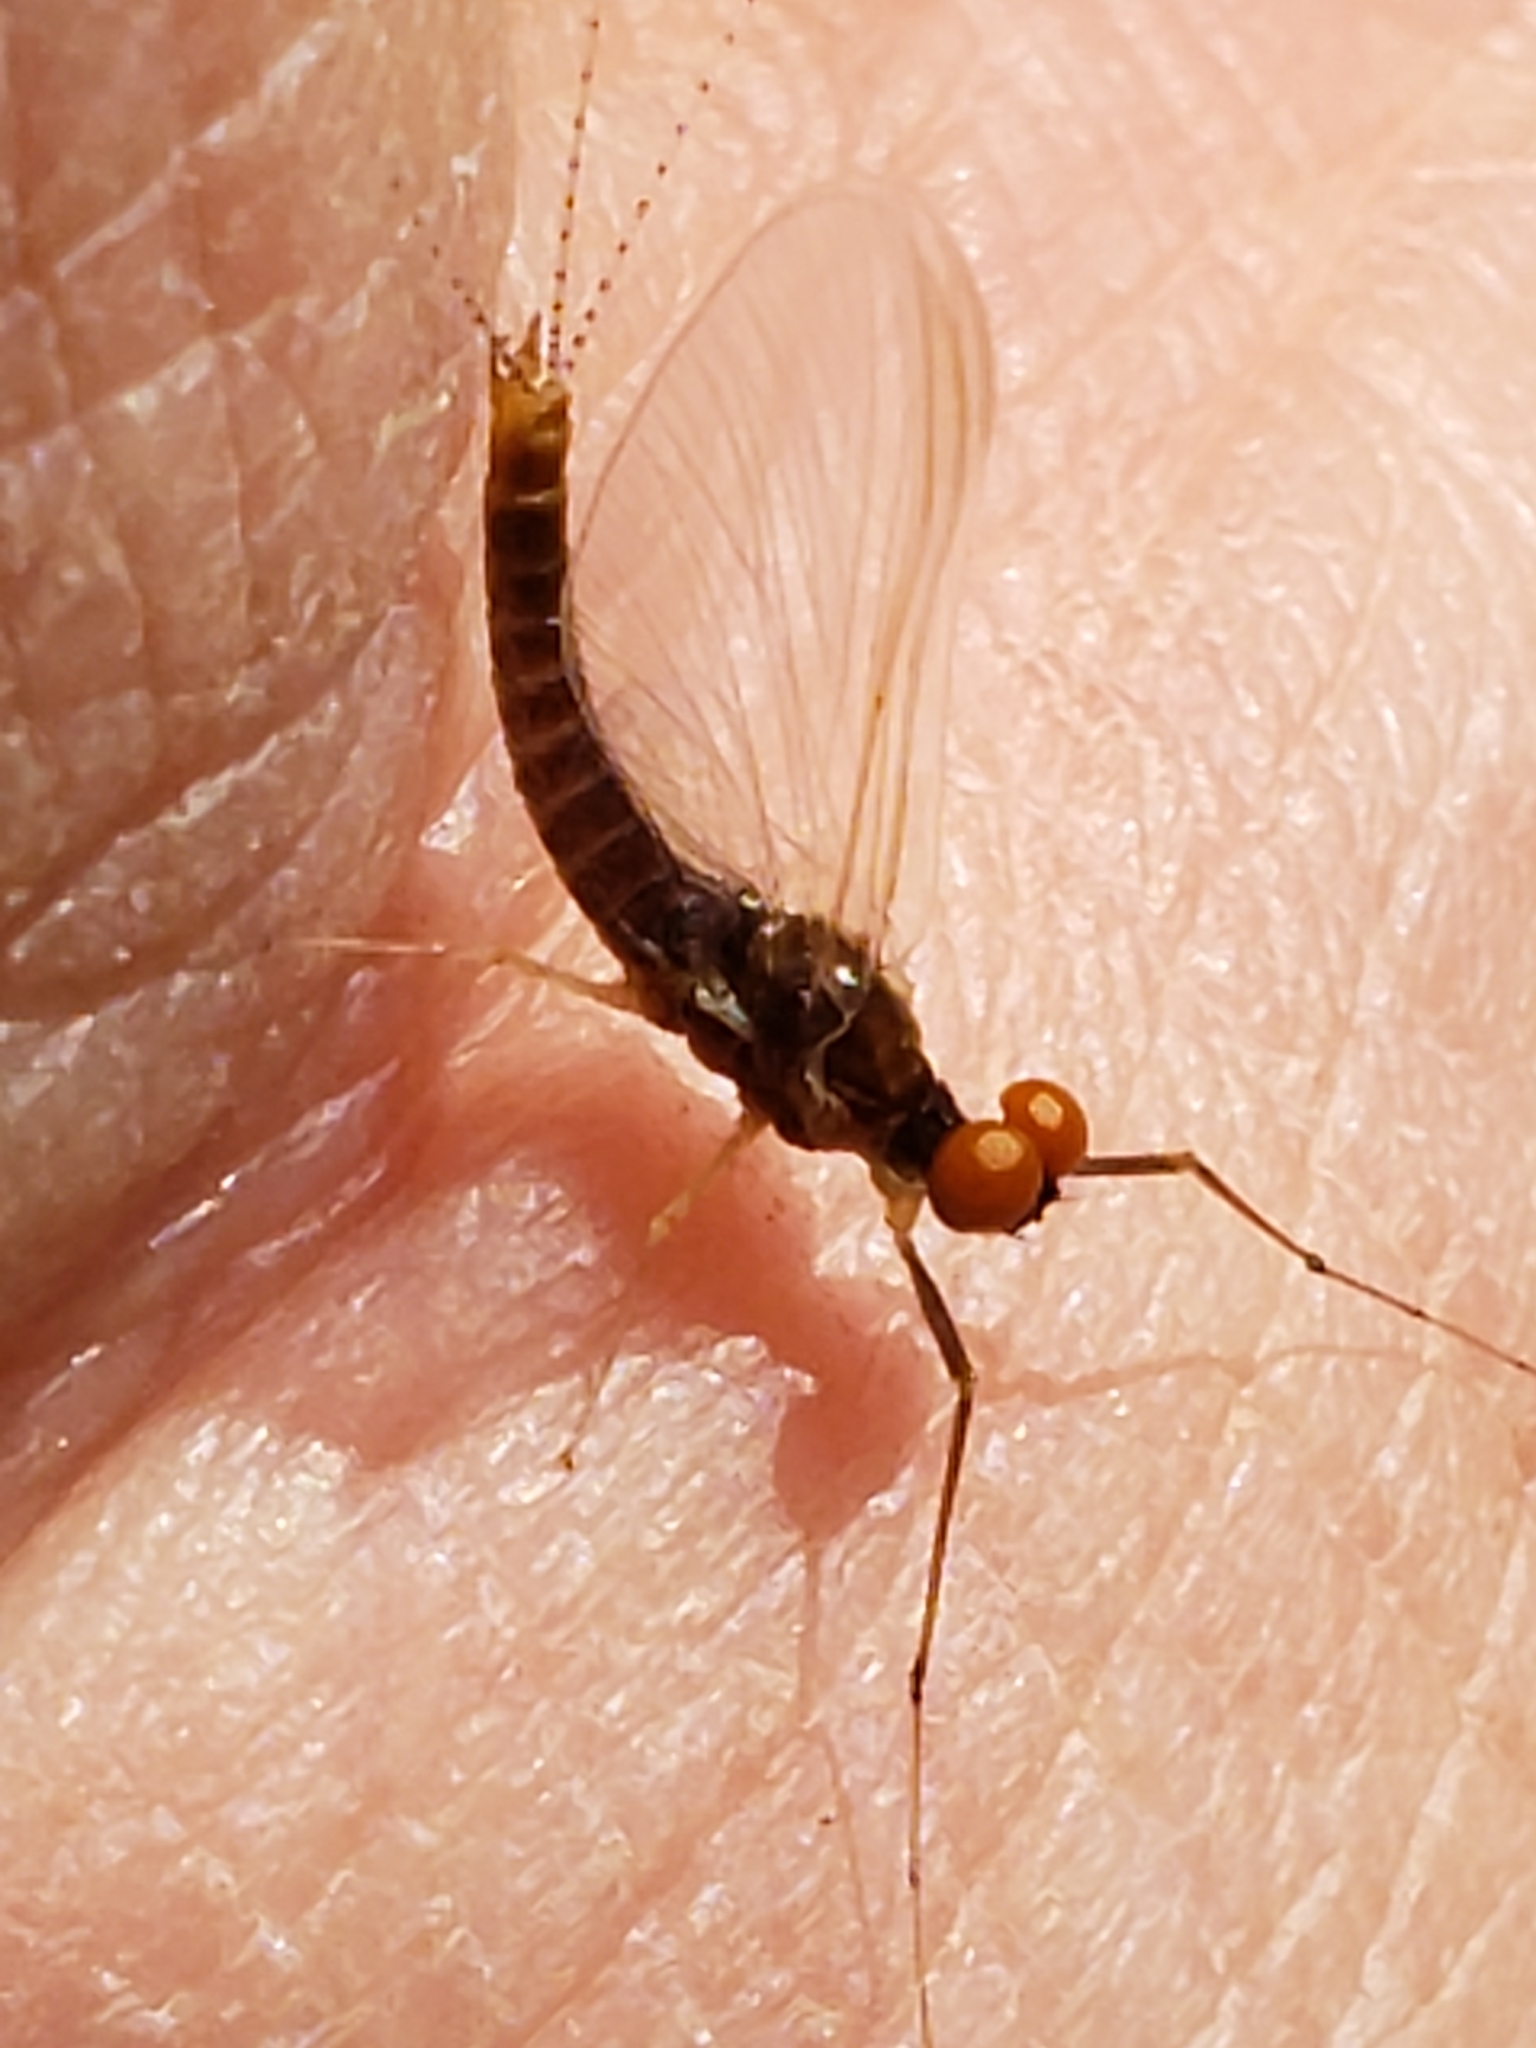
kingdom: Animalia
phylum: Arthropoda
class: Insecta
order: Ephemeroptera
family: Ephemerellidae
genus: Ephemerella
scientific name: Ephemerella subvaria
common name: Dark hendrickson
